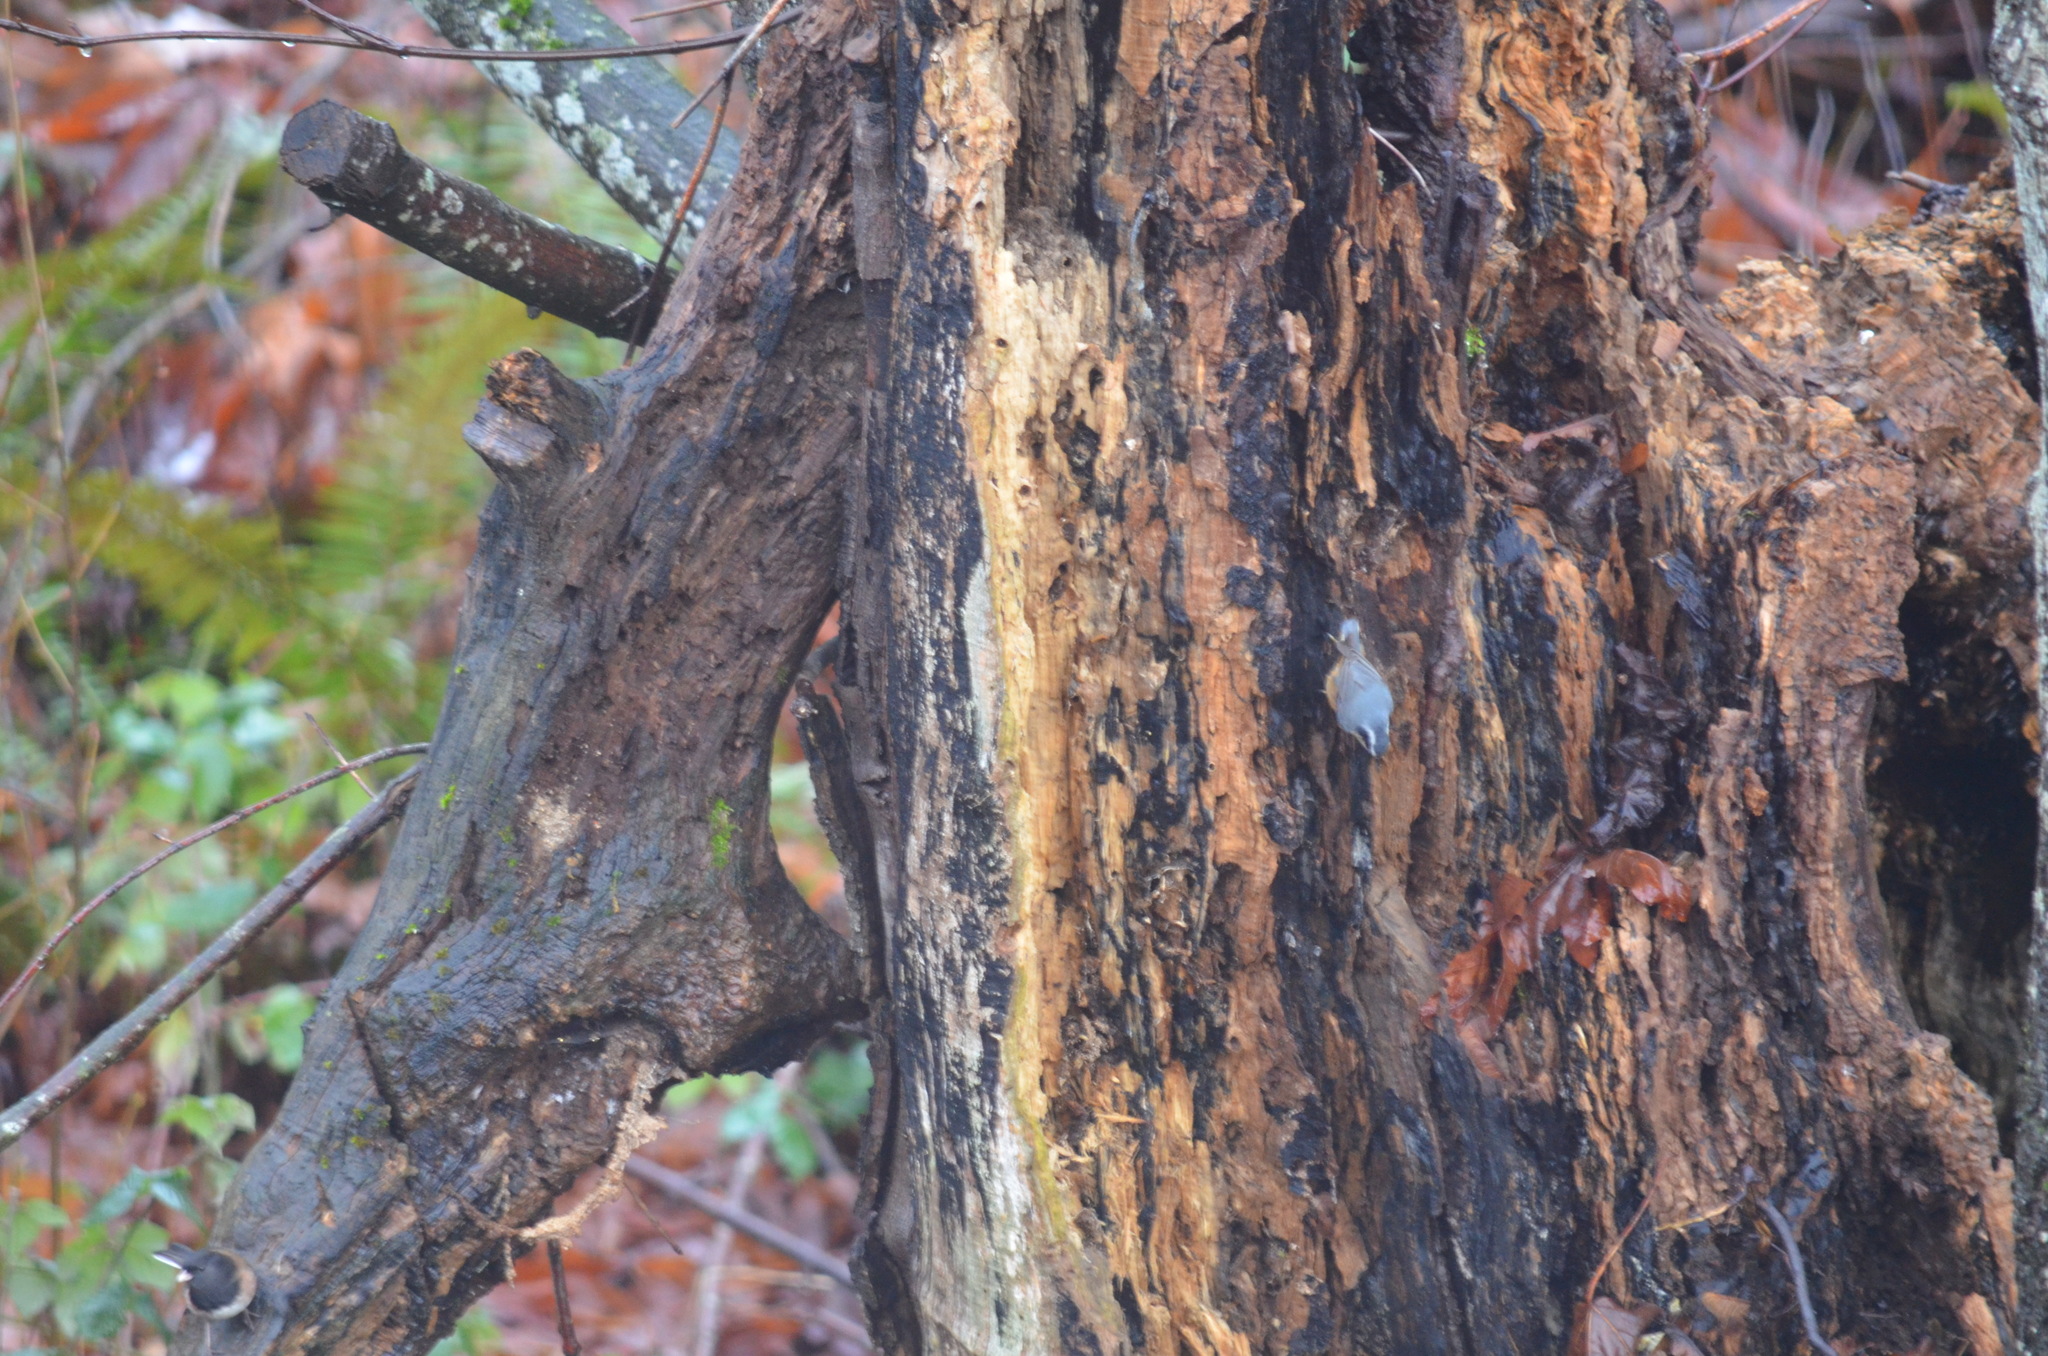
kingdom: Animalia
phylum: Chordata
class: Aves
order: Passeriformes
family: Sittidae
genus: Sitta
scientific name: Sitta canadensis
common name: Red-breasted nuthatch
